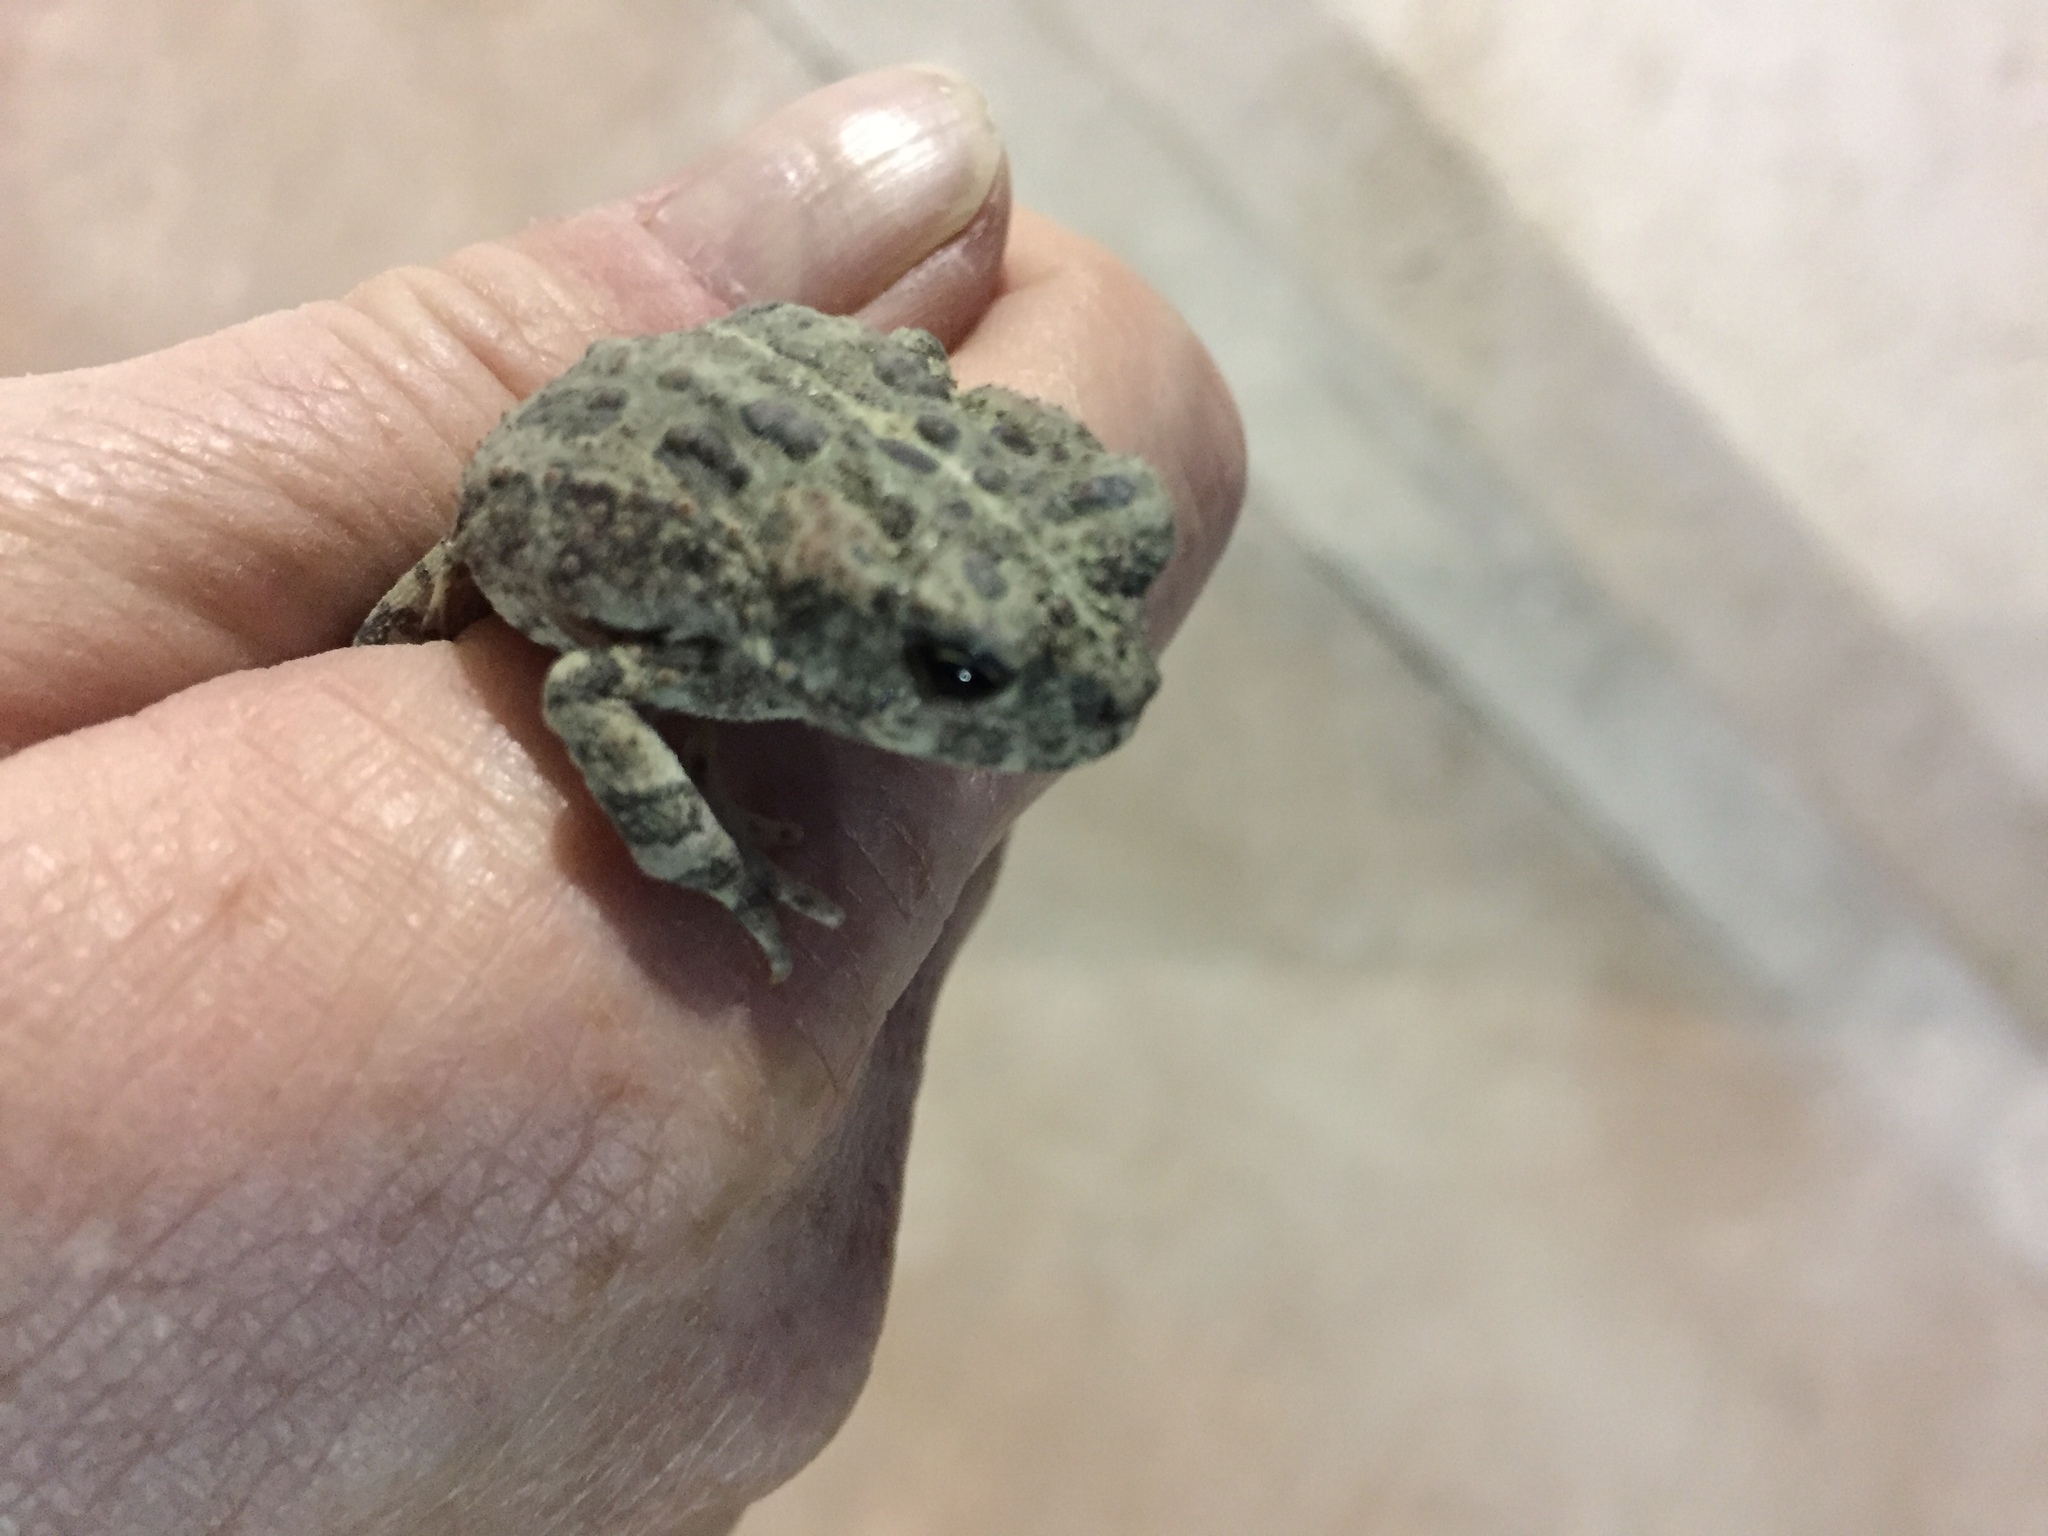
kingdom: Animalia
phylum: Chordata
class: Amphibia
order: Anura
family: Bufonidae
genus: Anaxyrus
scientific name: Anaxyrus boreas
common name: Western toad
